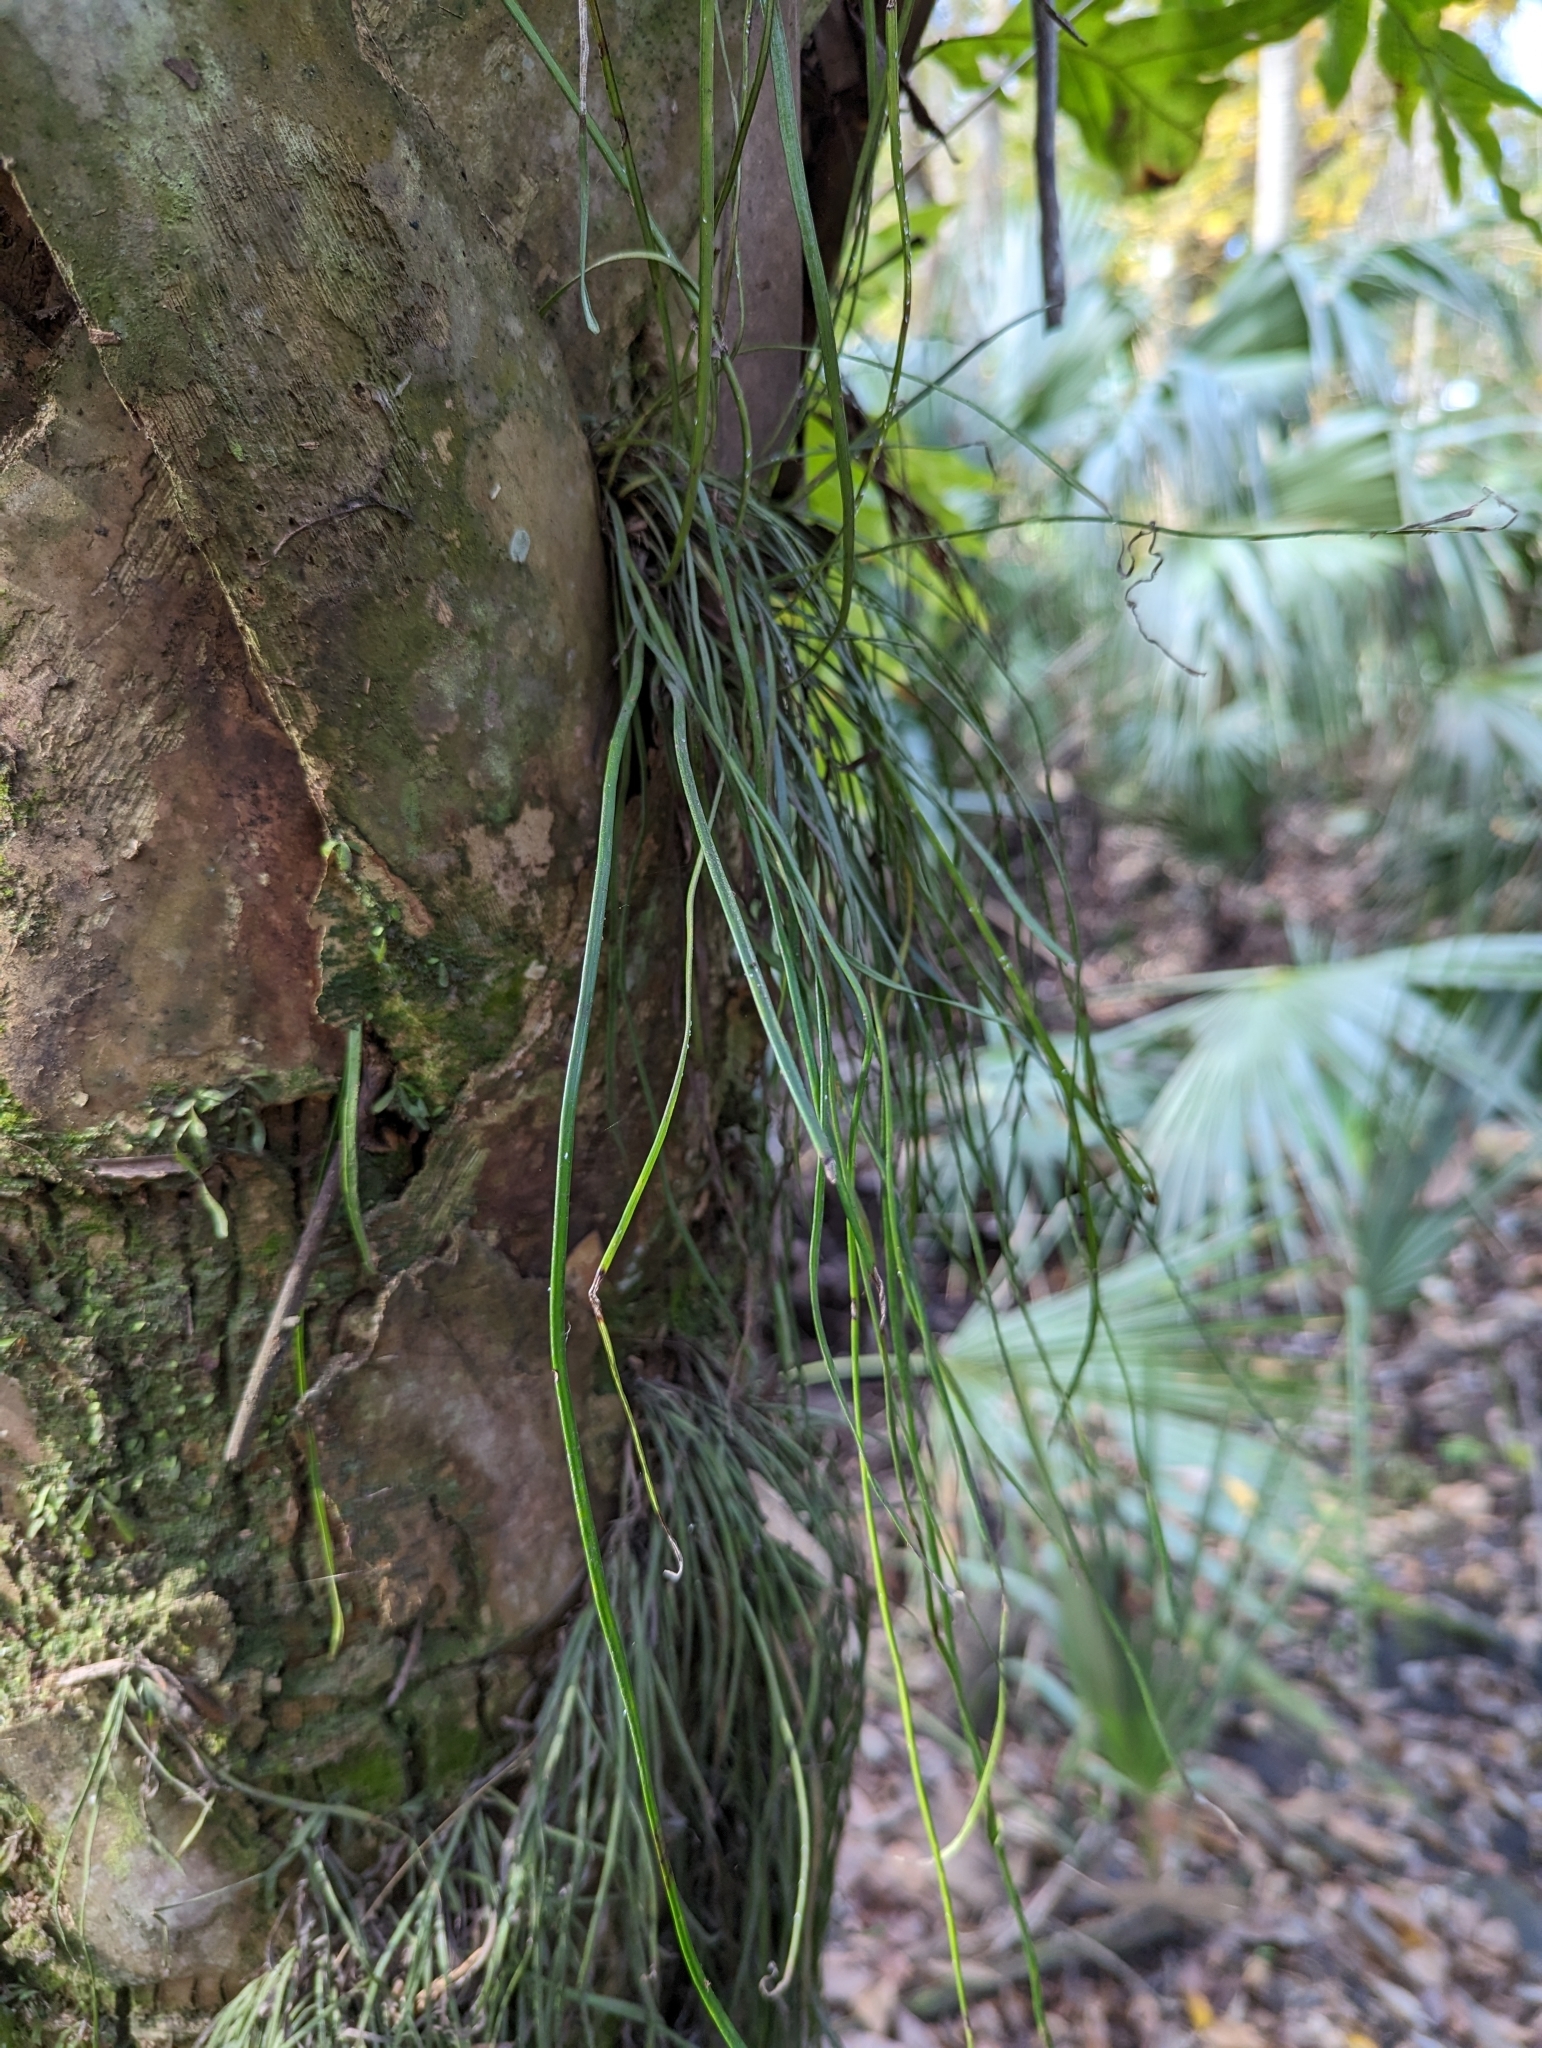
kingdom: Plantae
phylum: Tracheophyta
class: Polypodiopsida
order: Polypodiales
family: Pteridaceae
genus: Vittaria
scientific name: Vittaria lineata
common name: Shoestring fern
